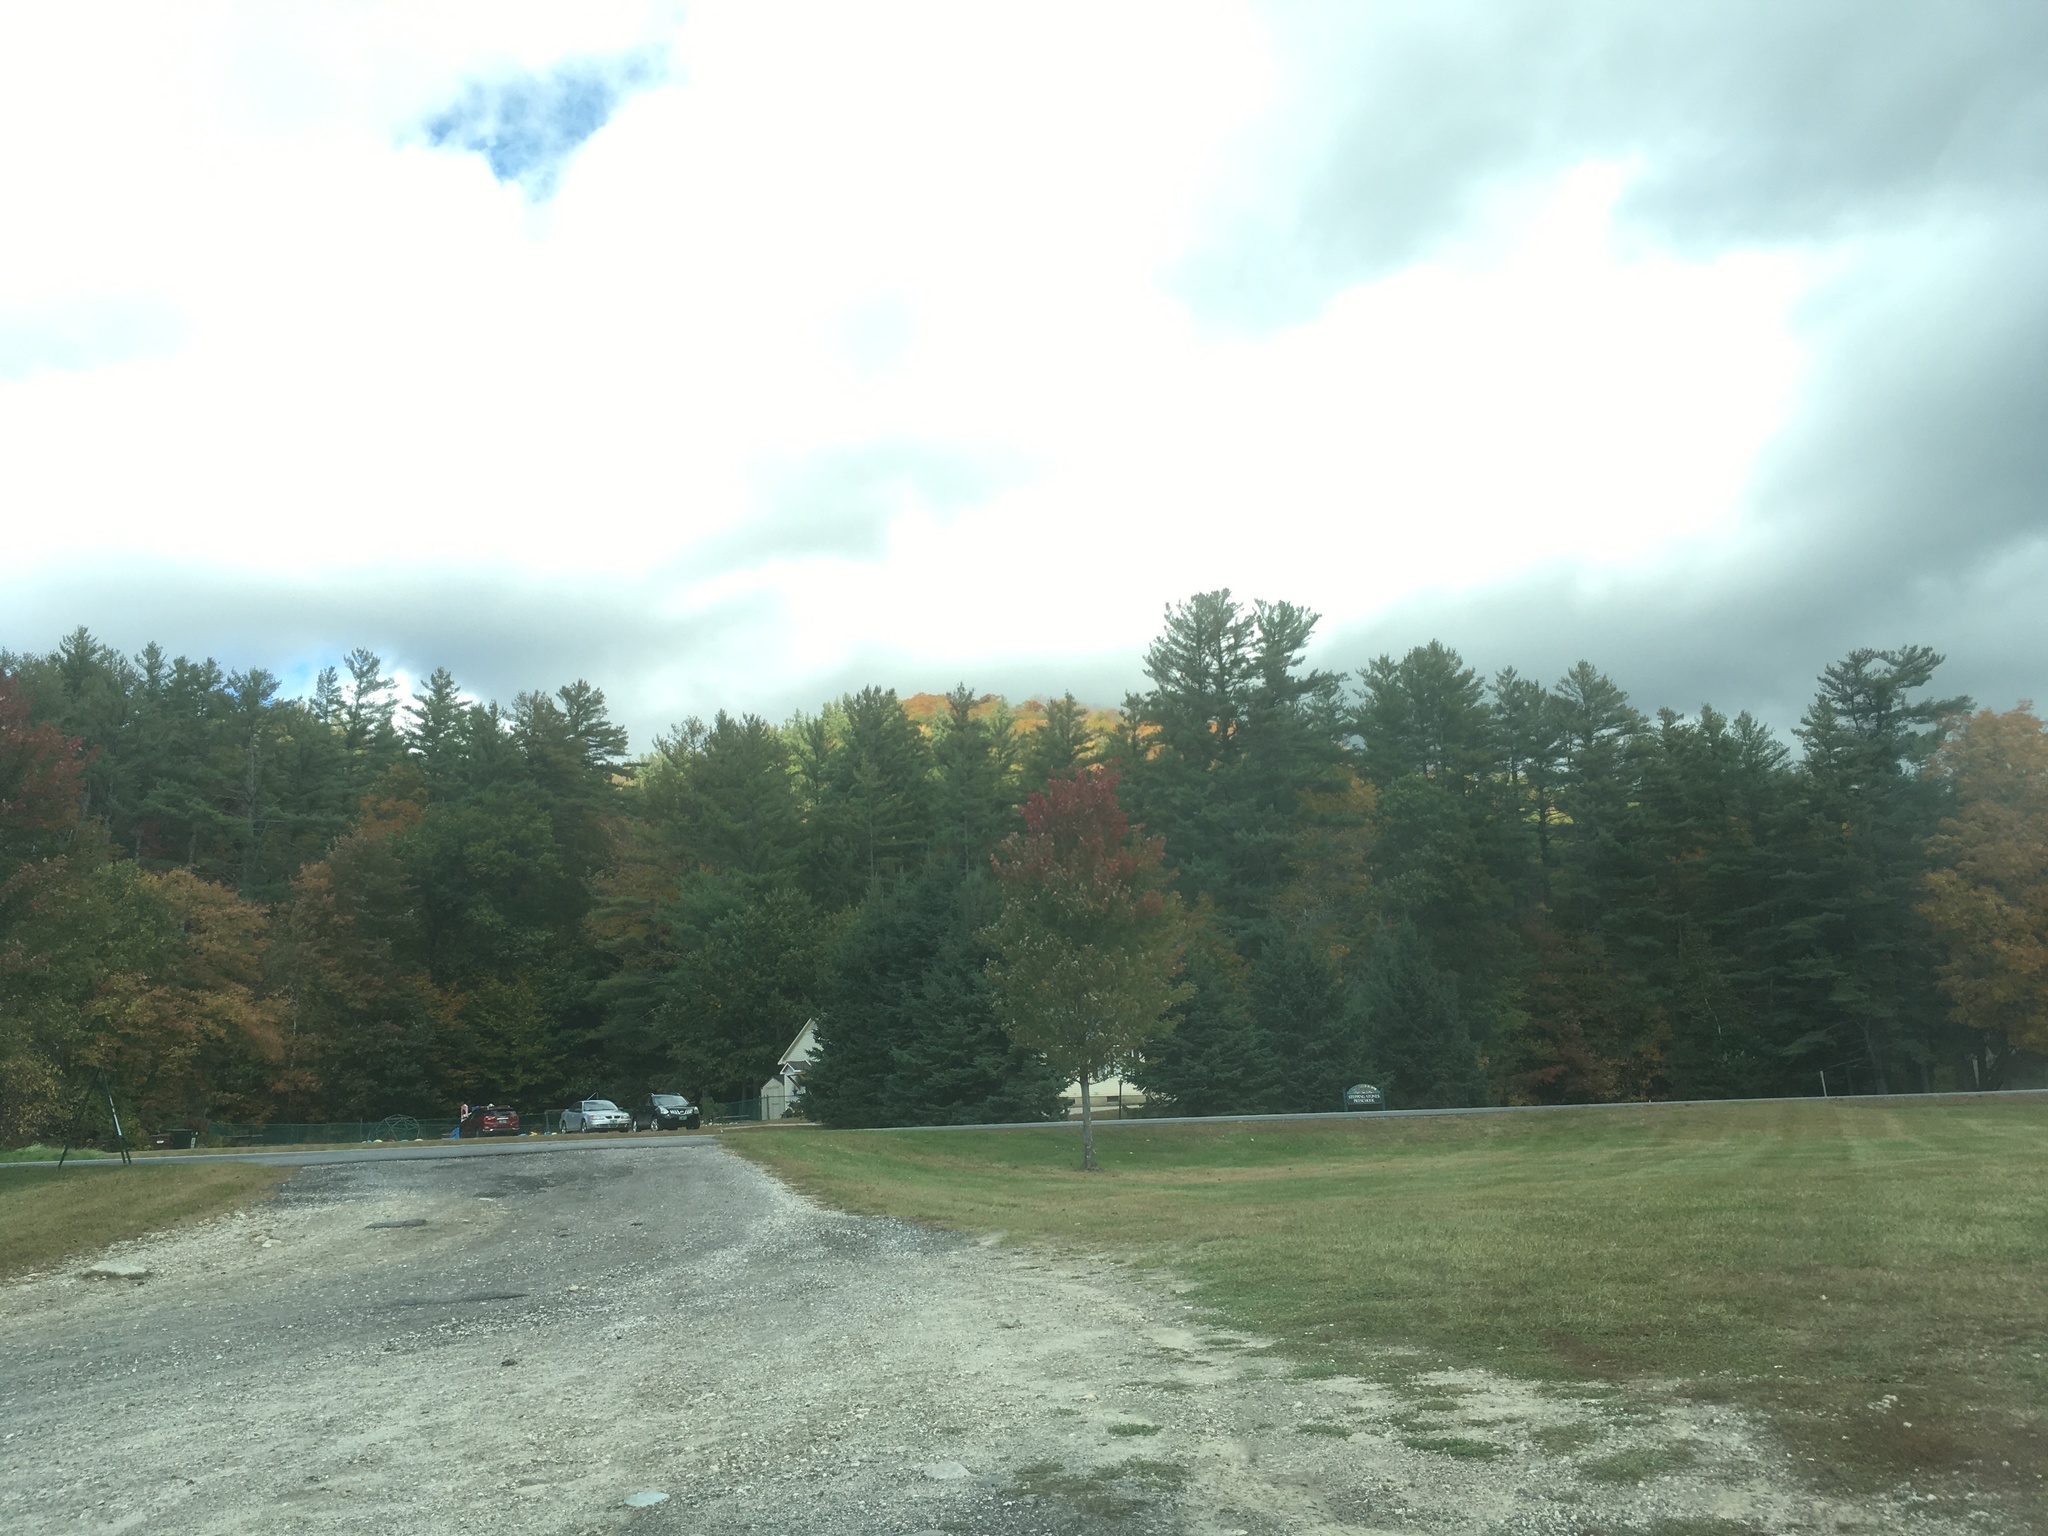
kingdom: Plantae
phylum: Tracheophyta
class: Pinopsida
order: Pinales
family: Pinaceae
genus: Pinus
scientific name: Pinus strobus
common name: Weymouth pine
